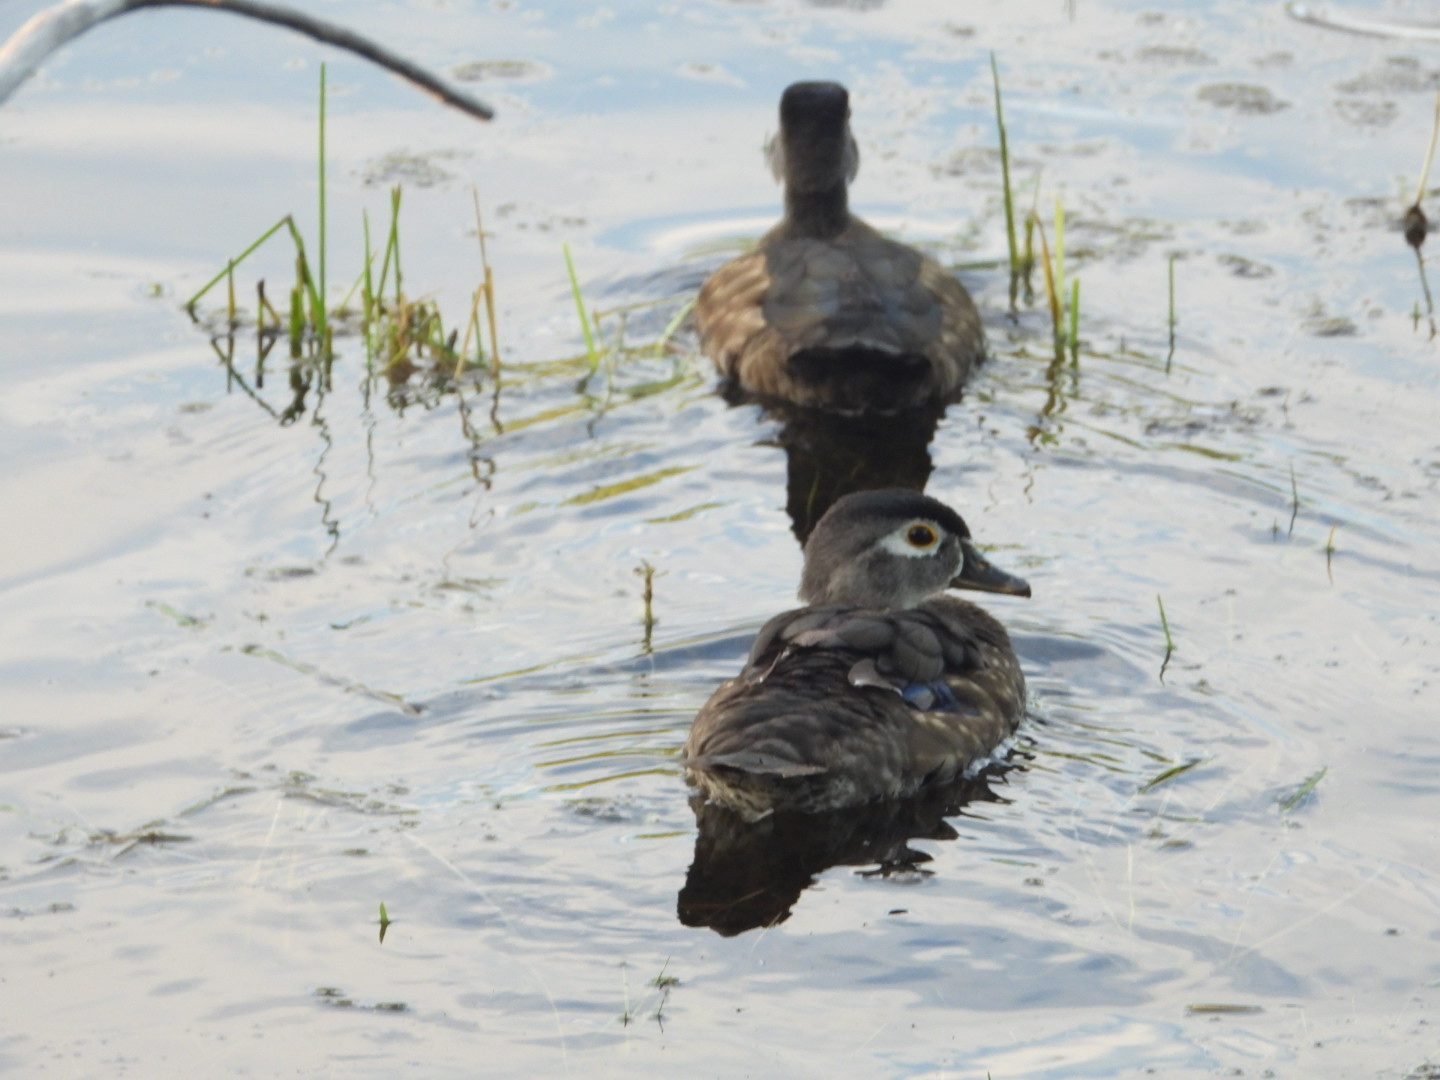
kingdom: Animalia
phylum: Chordata
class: Aves
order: Anseriformes
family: Anatidae
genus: Aix
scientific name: Aix sponsa
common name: Wood duck
